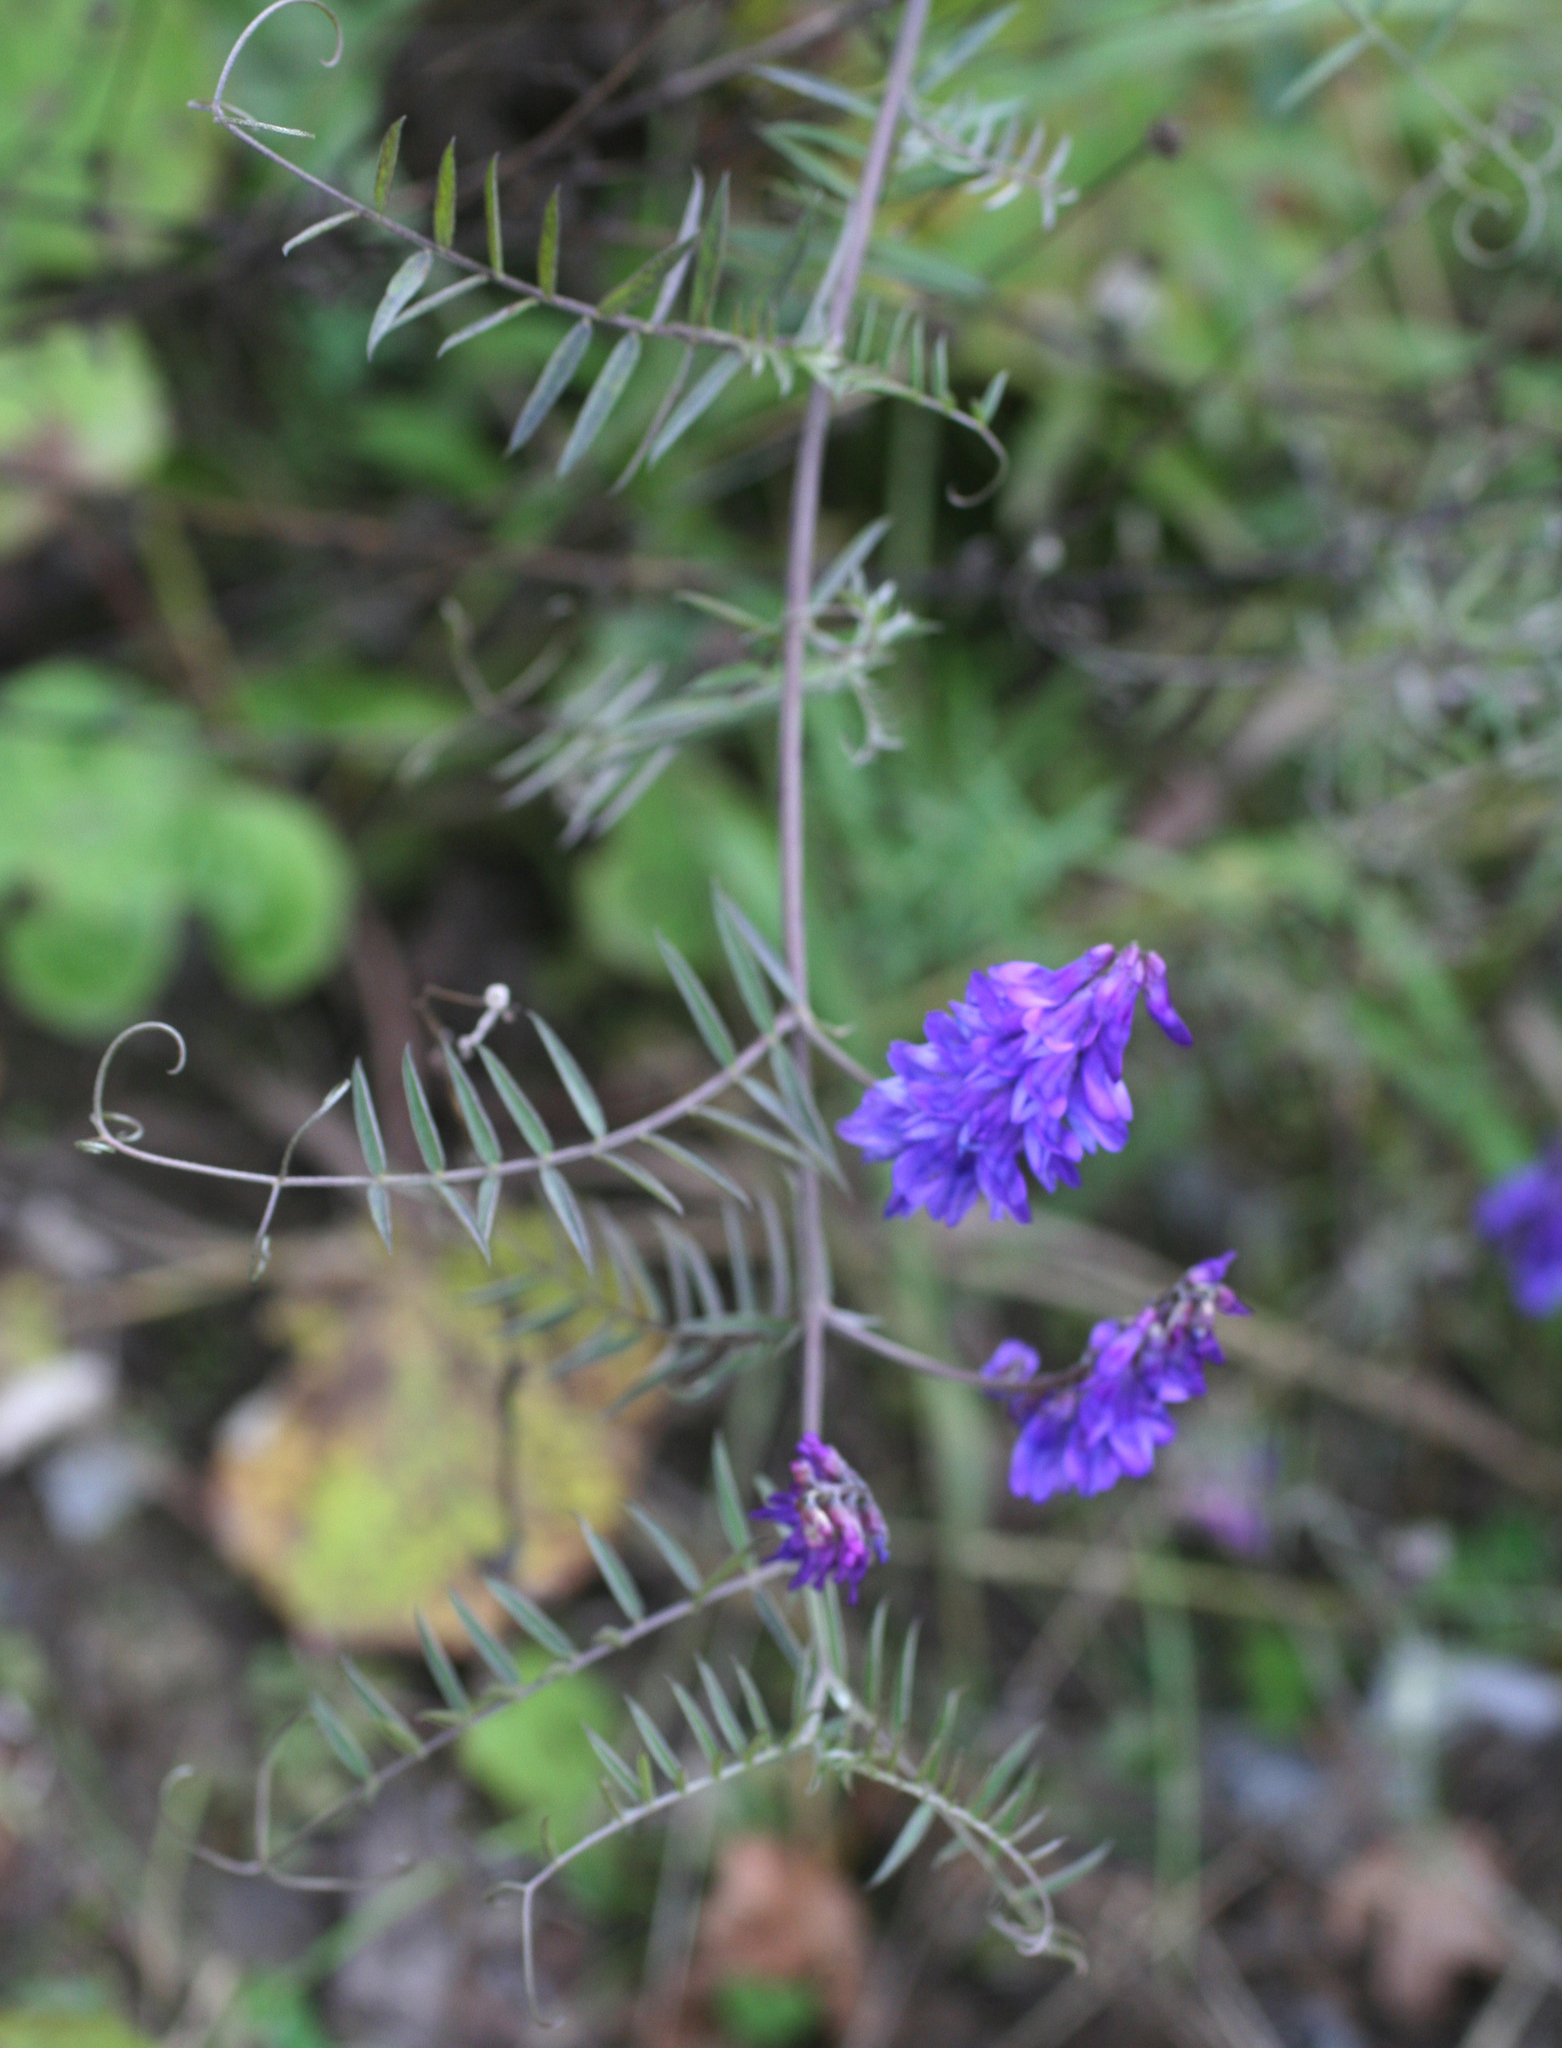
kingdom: Plantae
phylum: Tracheophyta
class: Magnoliopsida
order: Fabales
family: Fabaceae
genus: Vicia
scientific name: Vicia cracca
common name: Bird vetch
